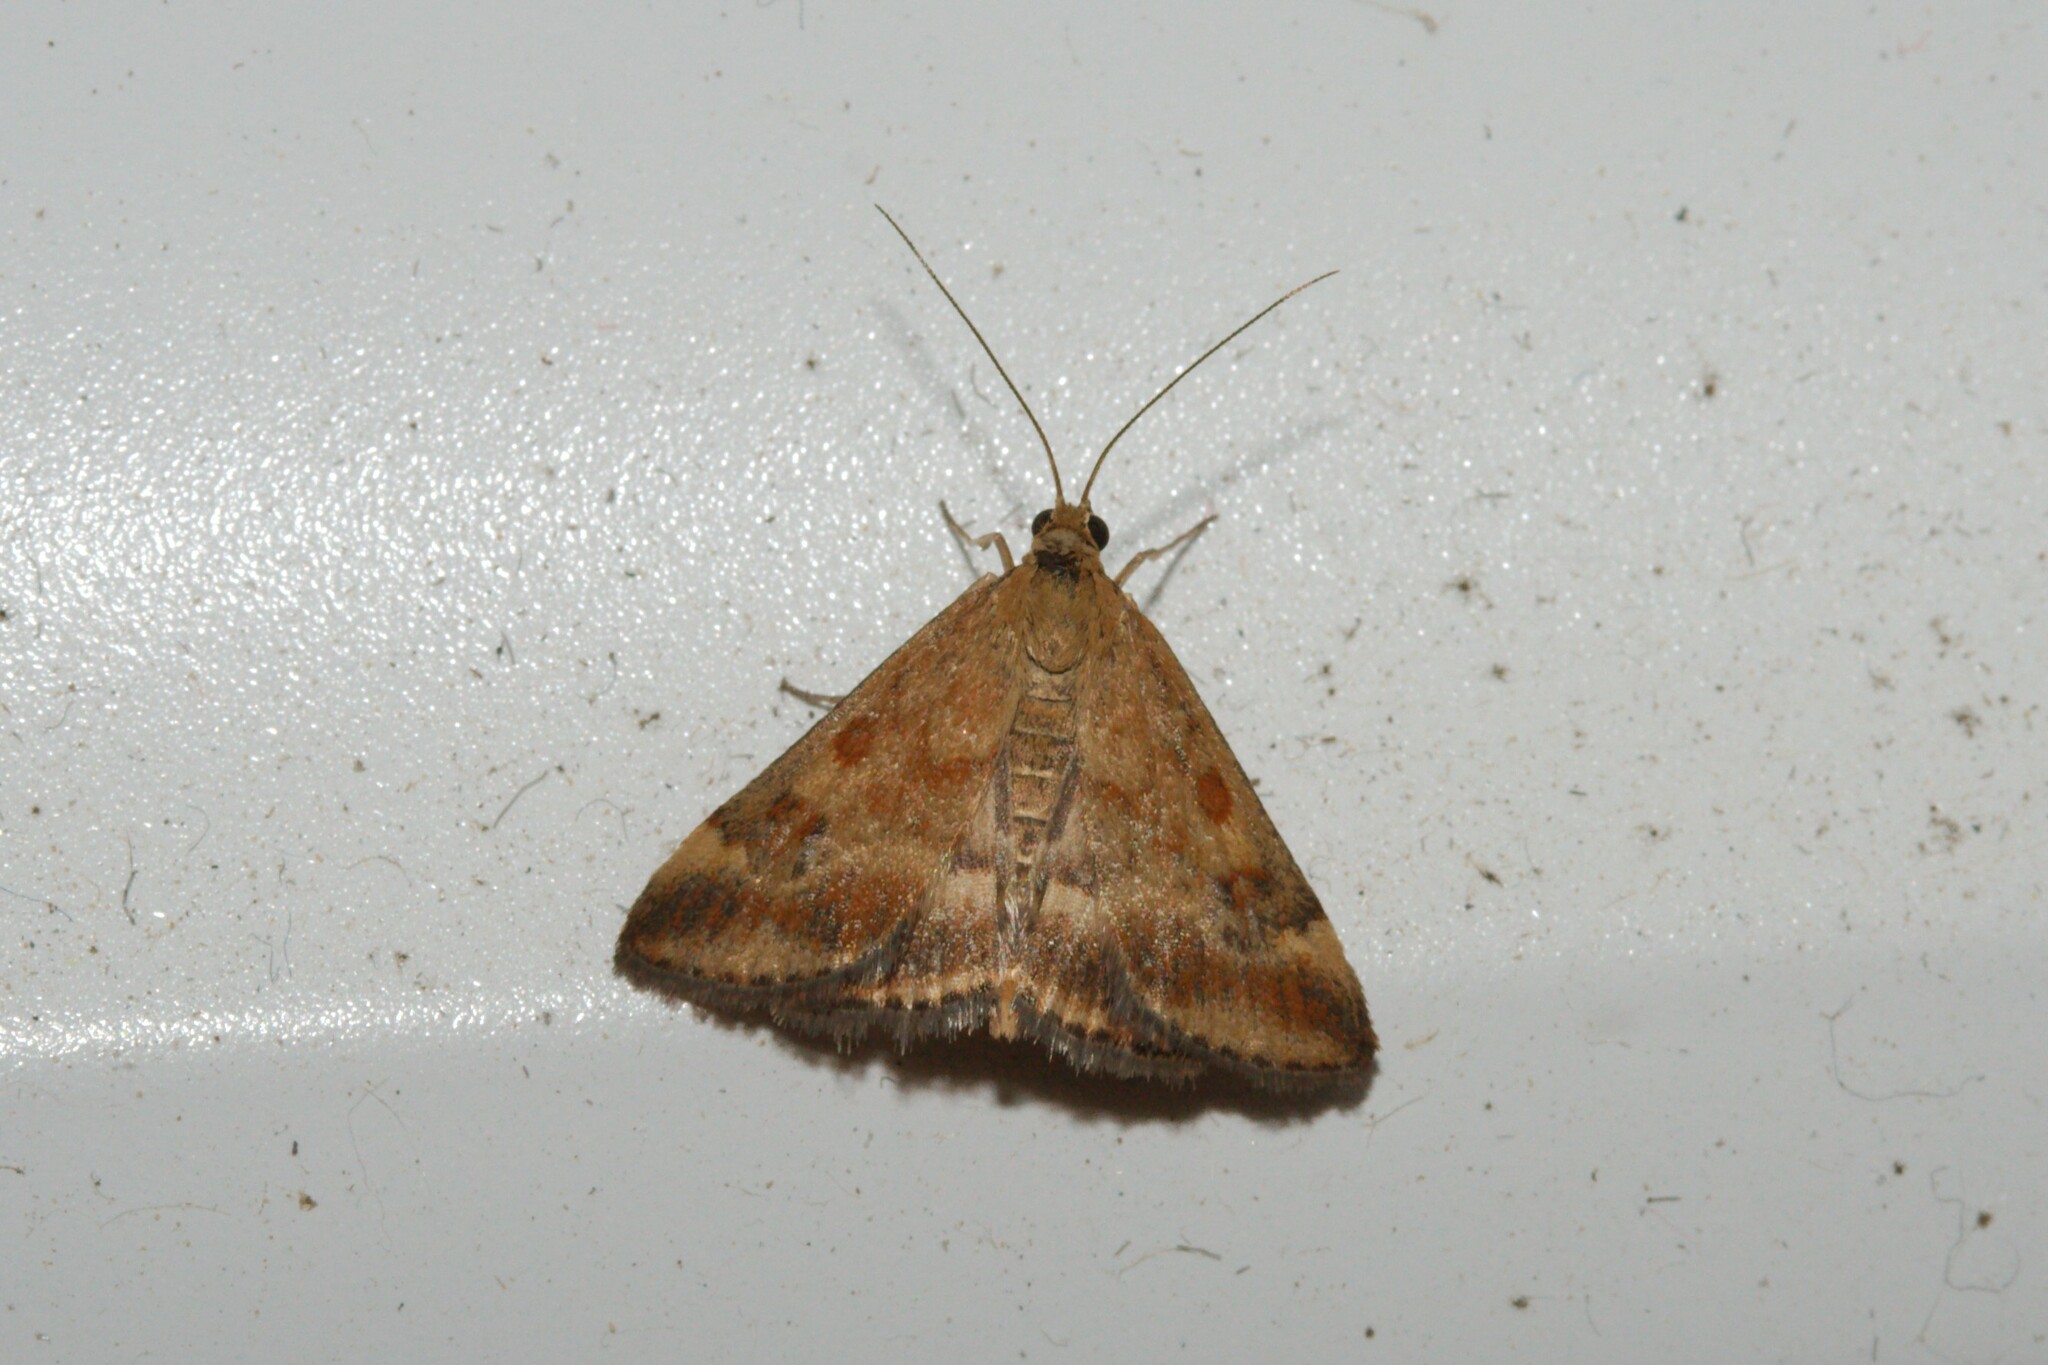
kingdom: Animalia
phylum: Arthropoda
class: Insecta
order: Lepidoptera
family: Crambidae
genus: Pyrausta
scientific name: Pyrausta despicata
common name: Straw-barred pearl
